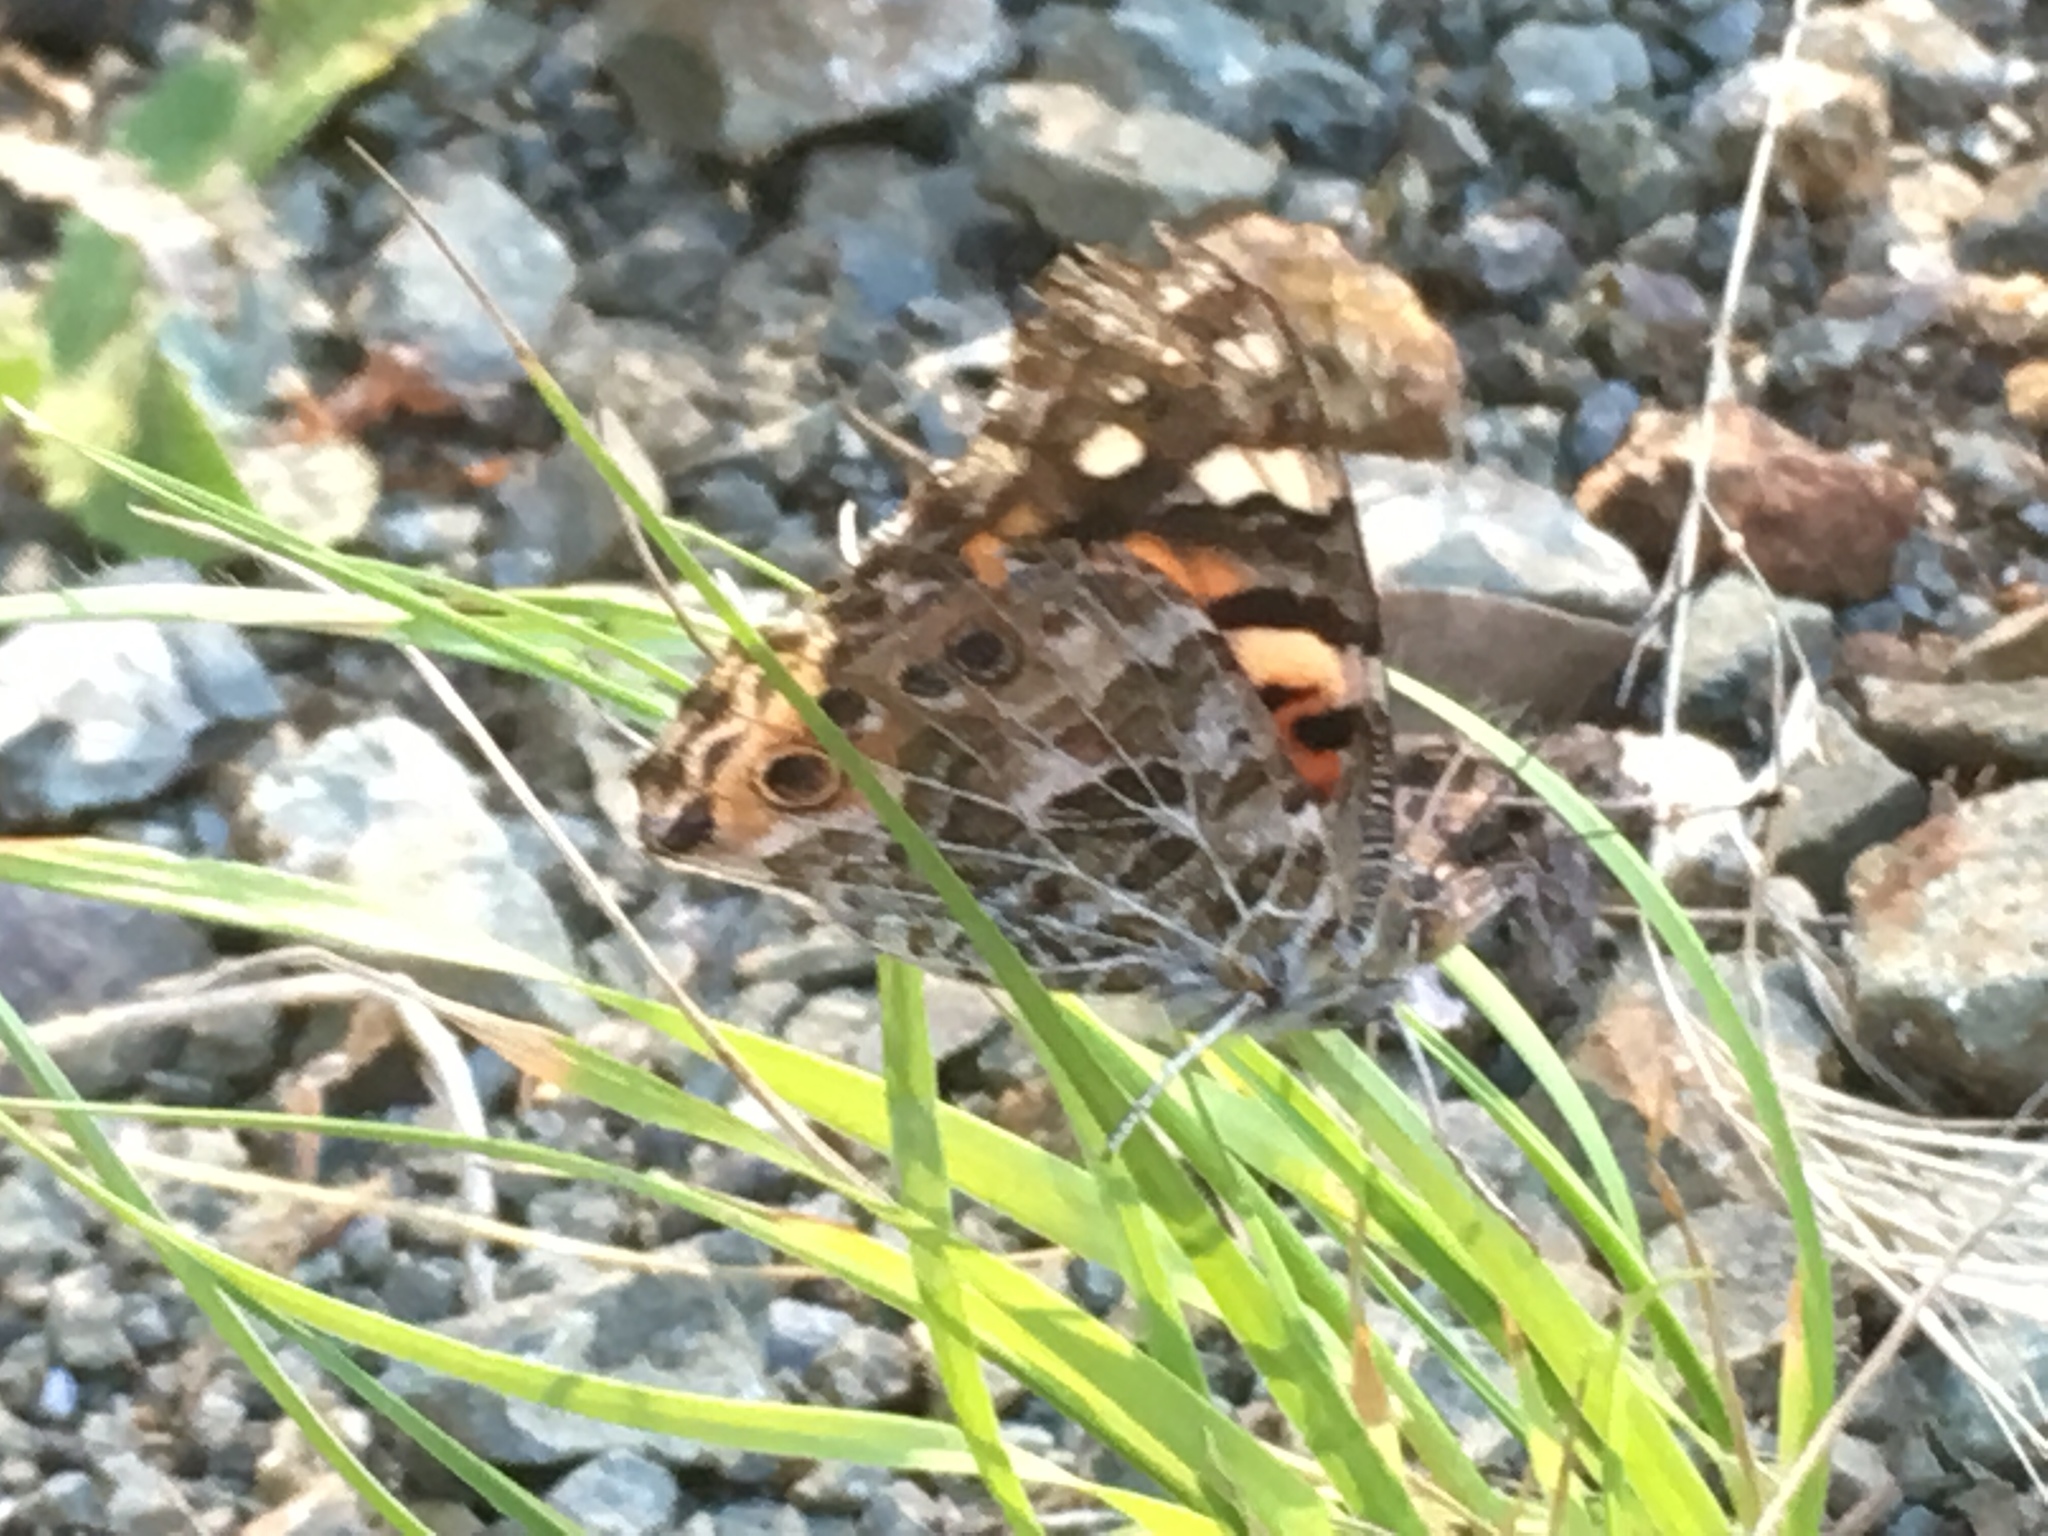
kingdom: Animalia
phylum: Arthropoda
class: Insecta
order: Lepidoptera
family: Nymphalidae
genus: Vanessa
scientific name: Vanessa cardui
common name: Painted lady
